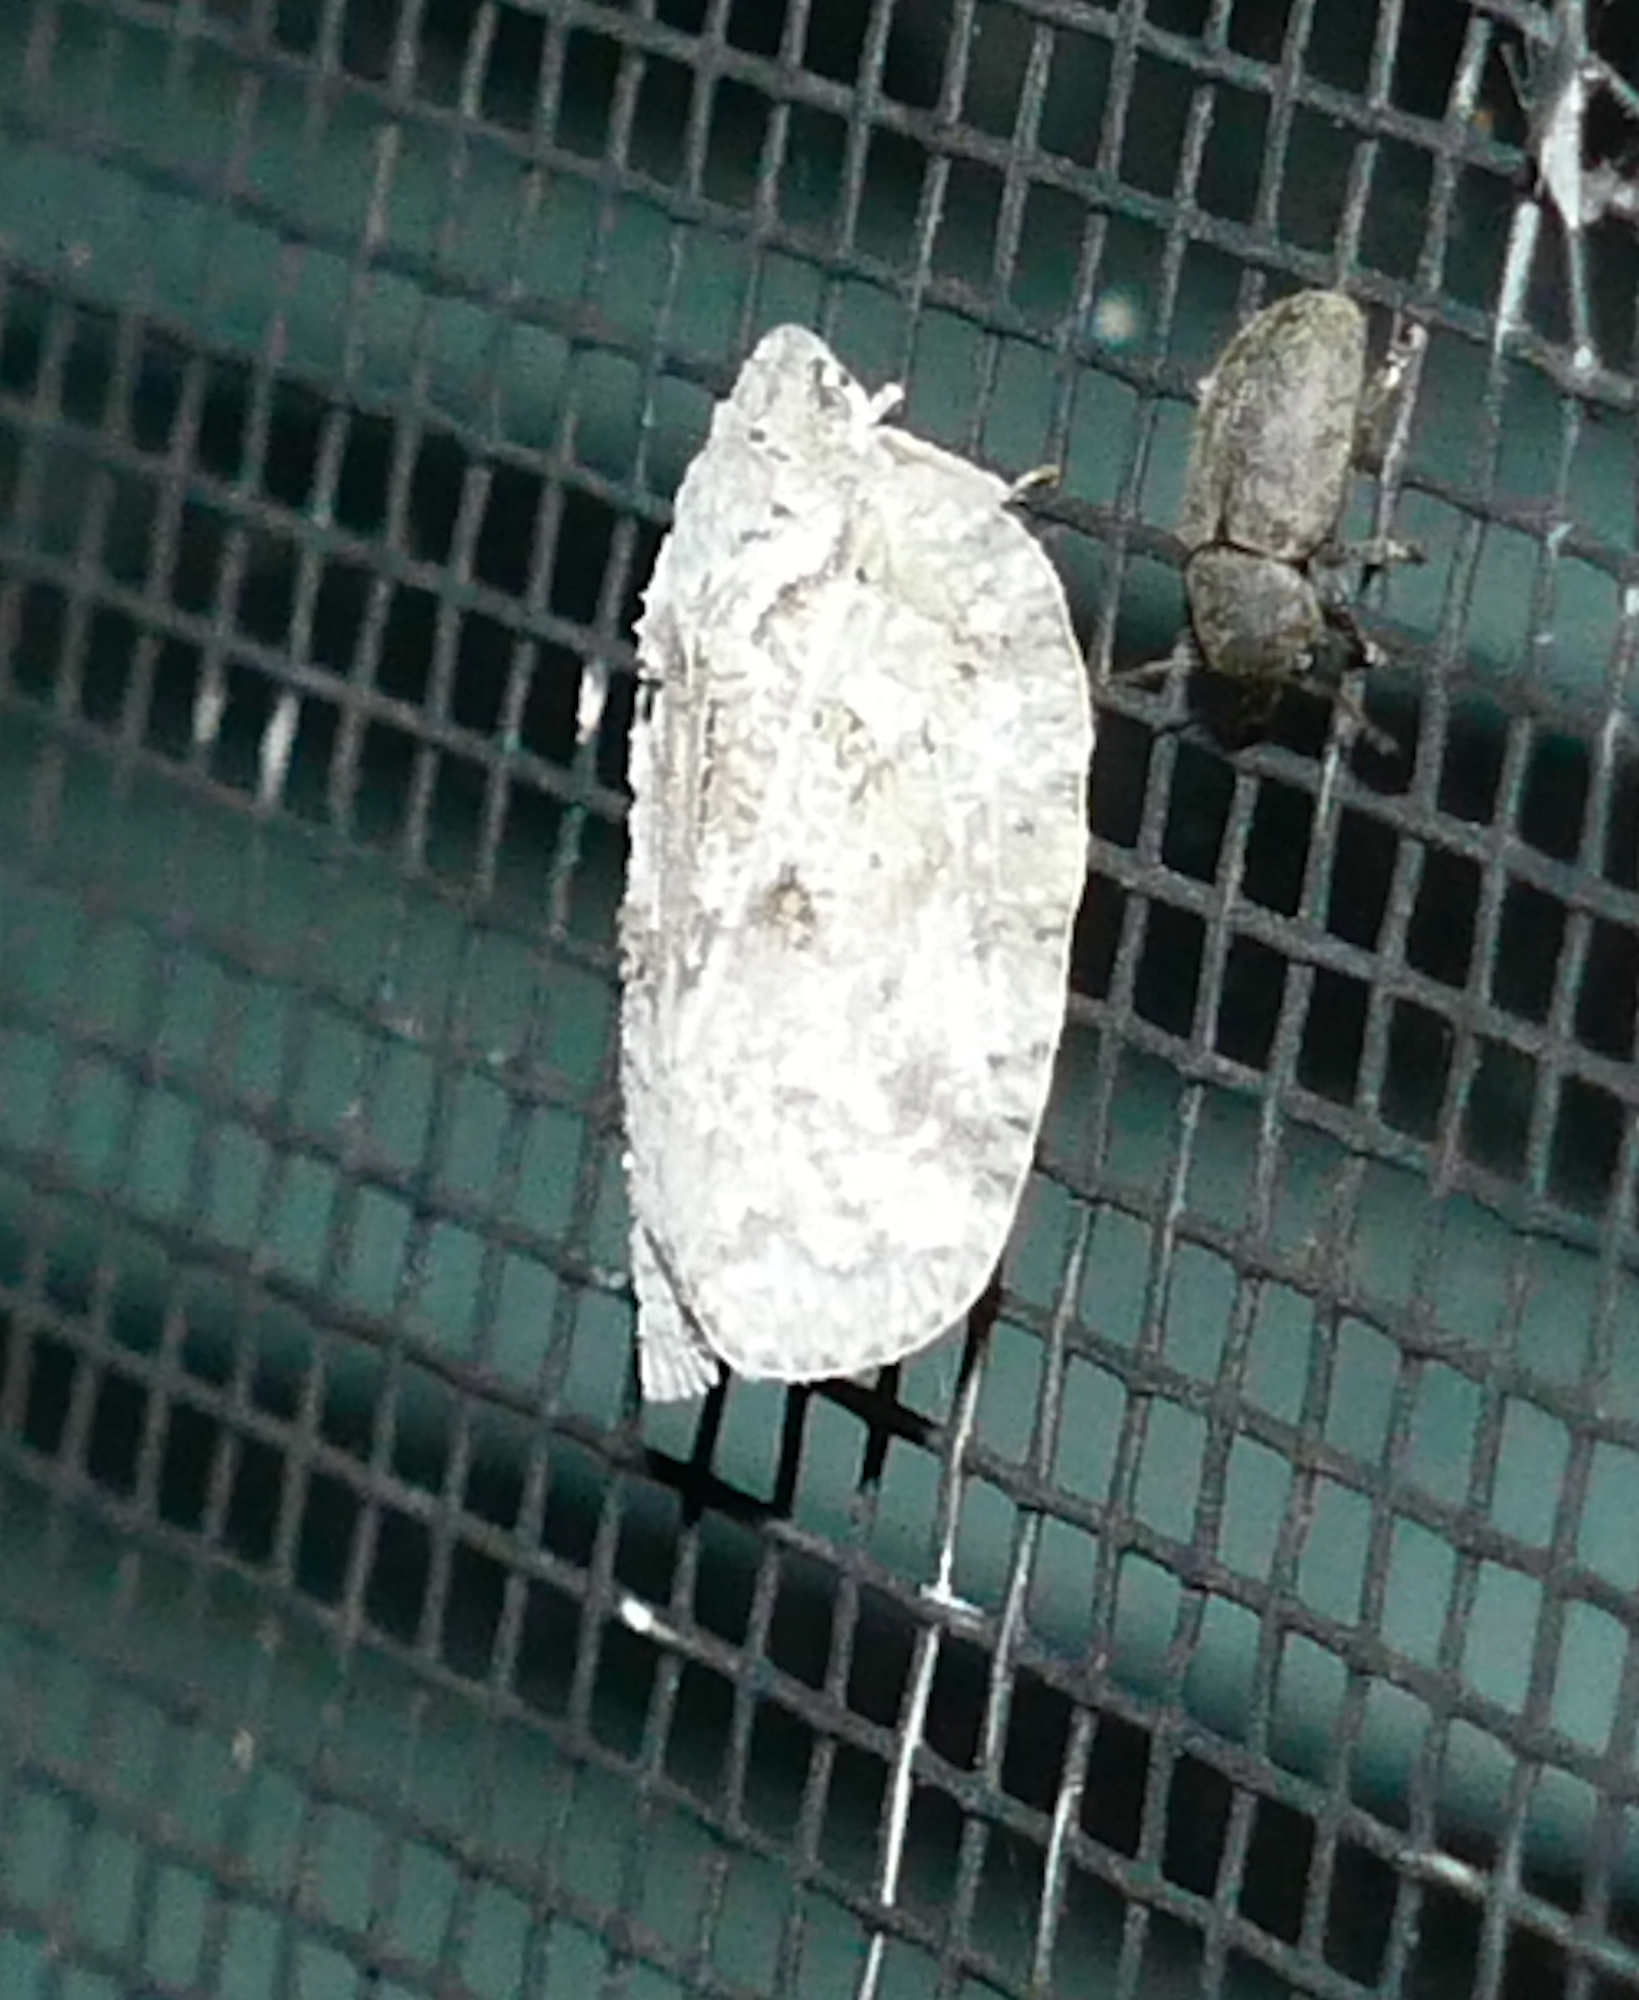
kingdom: Animalia
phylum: Arthropoda
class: Insecta
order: Hemiptera
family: Flatidae
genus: Flatoidinus
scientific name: Flatoidinus punctatus
